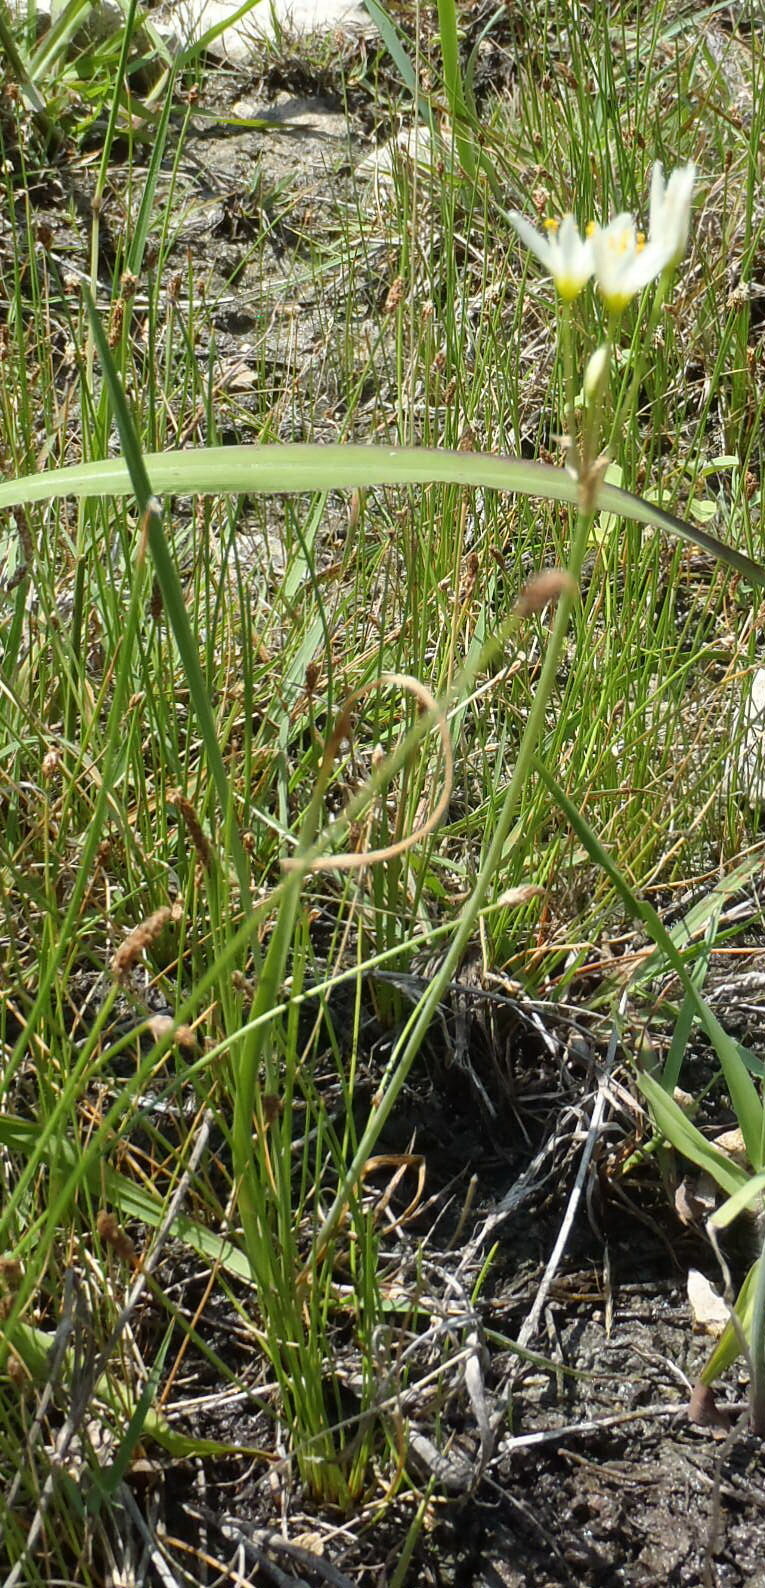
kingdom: Plantae
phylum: Tracheophyta
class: Liliopsida
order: Asparagales
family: Amaryllidaceae
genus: Nothoscordum
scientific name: Nothoscordum bivalve
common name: Crow-poison
